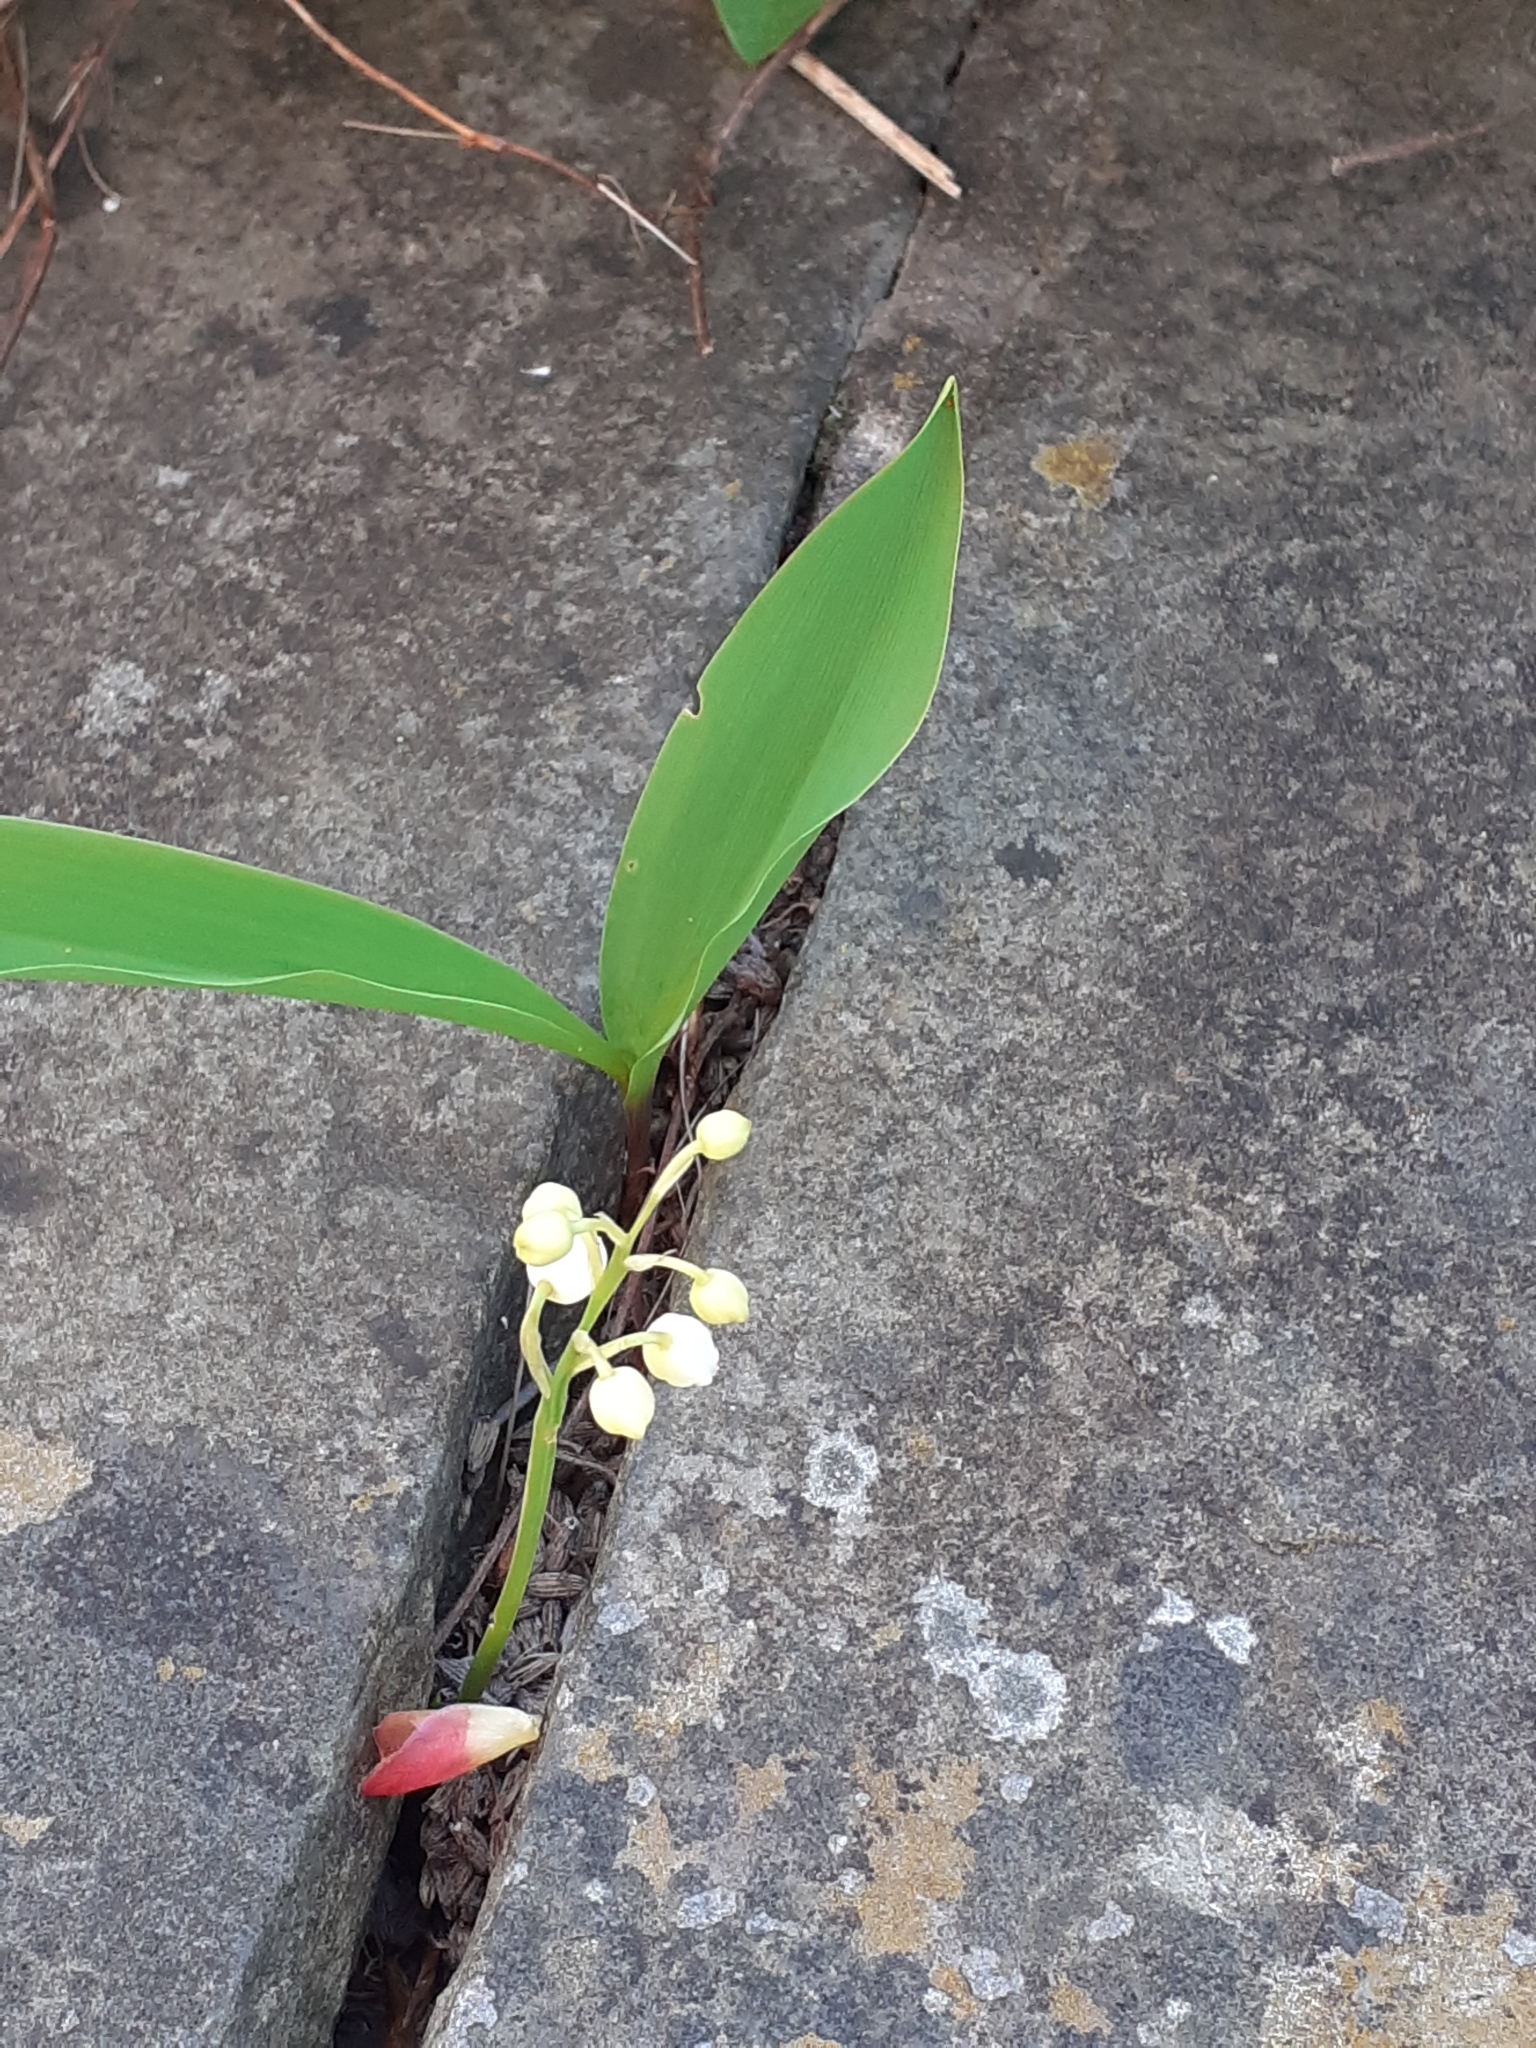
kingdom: Plantae
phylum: Tracheophyta
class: Liliopsida
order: Asparagales
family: Asparagaceae
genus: Convallaria
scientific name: Convallaria majalis
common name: Lily-of-the-valley
